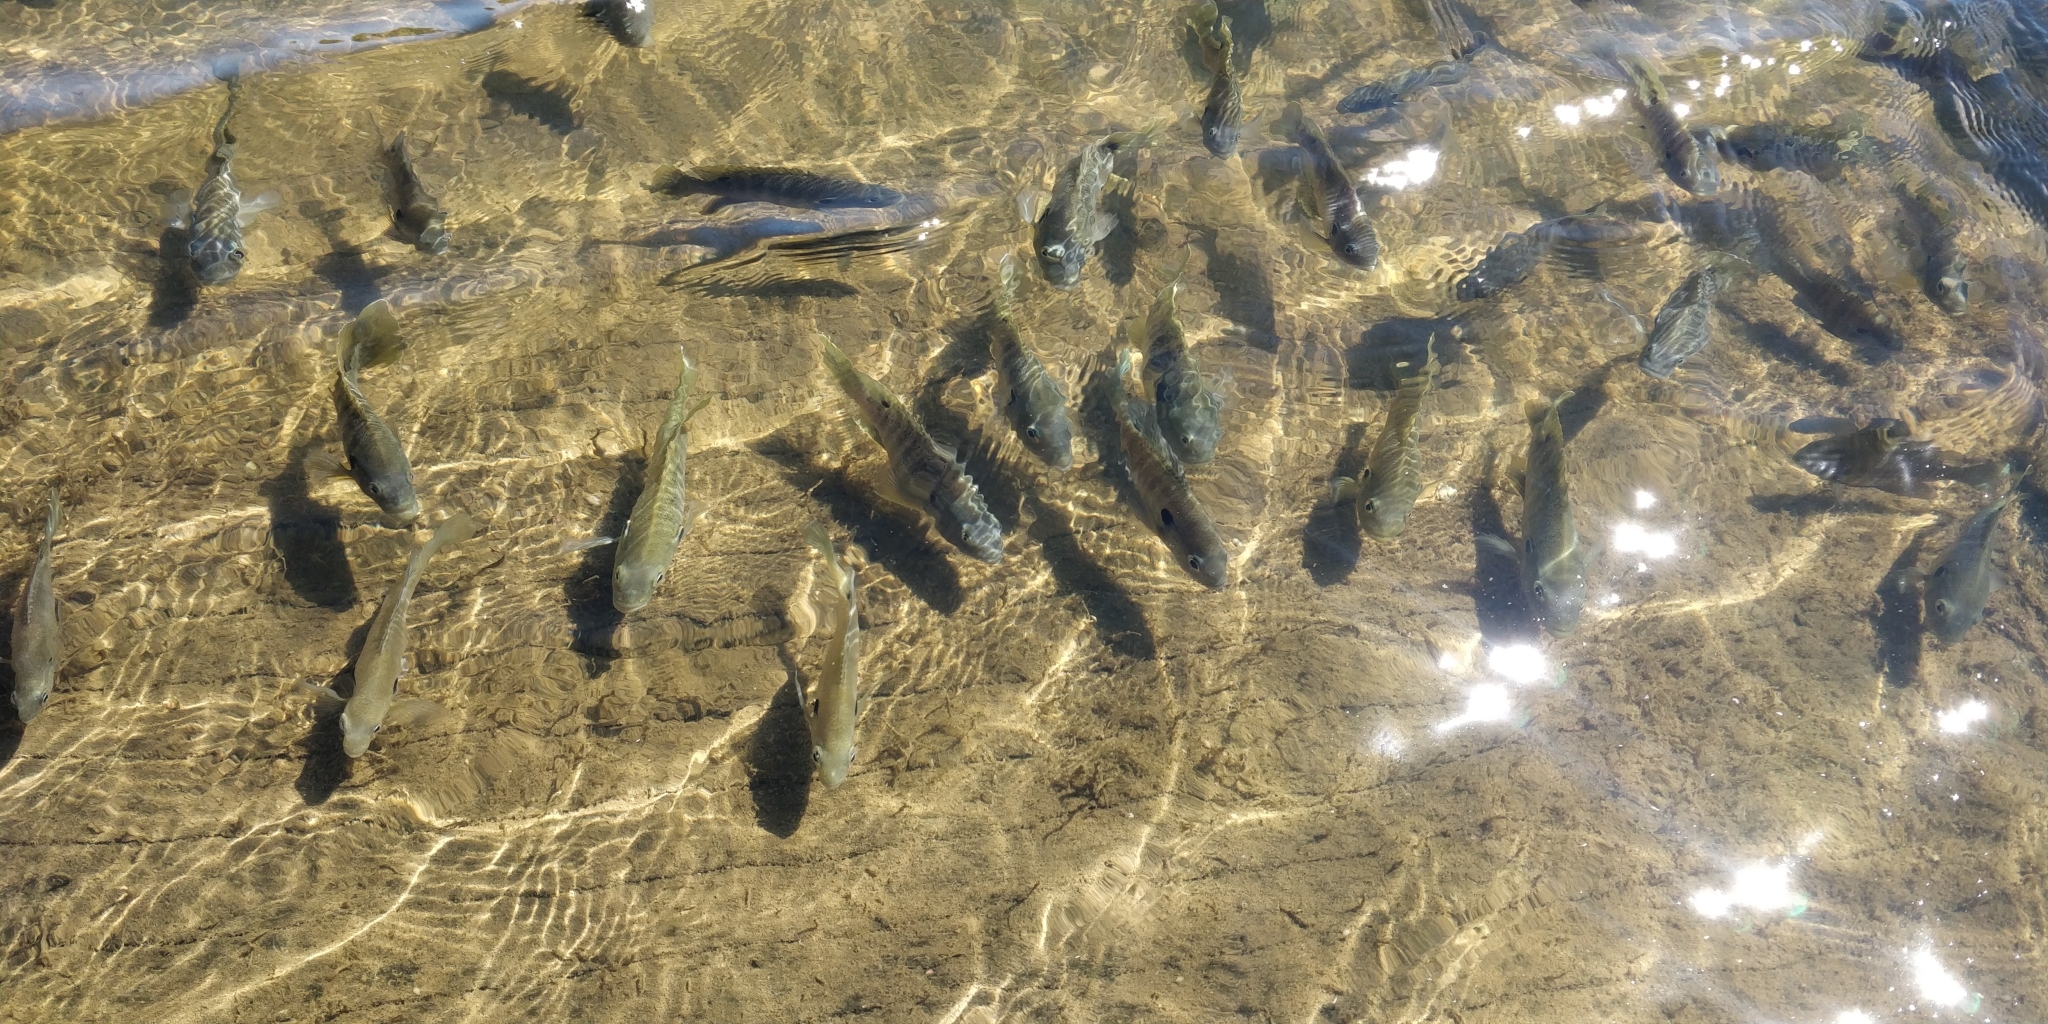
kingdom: Animalia
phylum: Chordata
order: Perciformes
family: Centrarchidae
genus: Lepomis
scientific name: Lepomis macrochirus
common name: Bluegill
